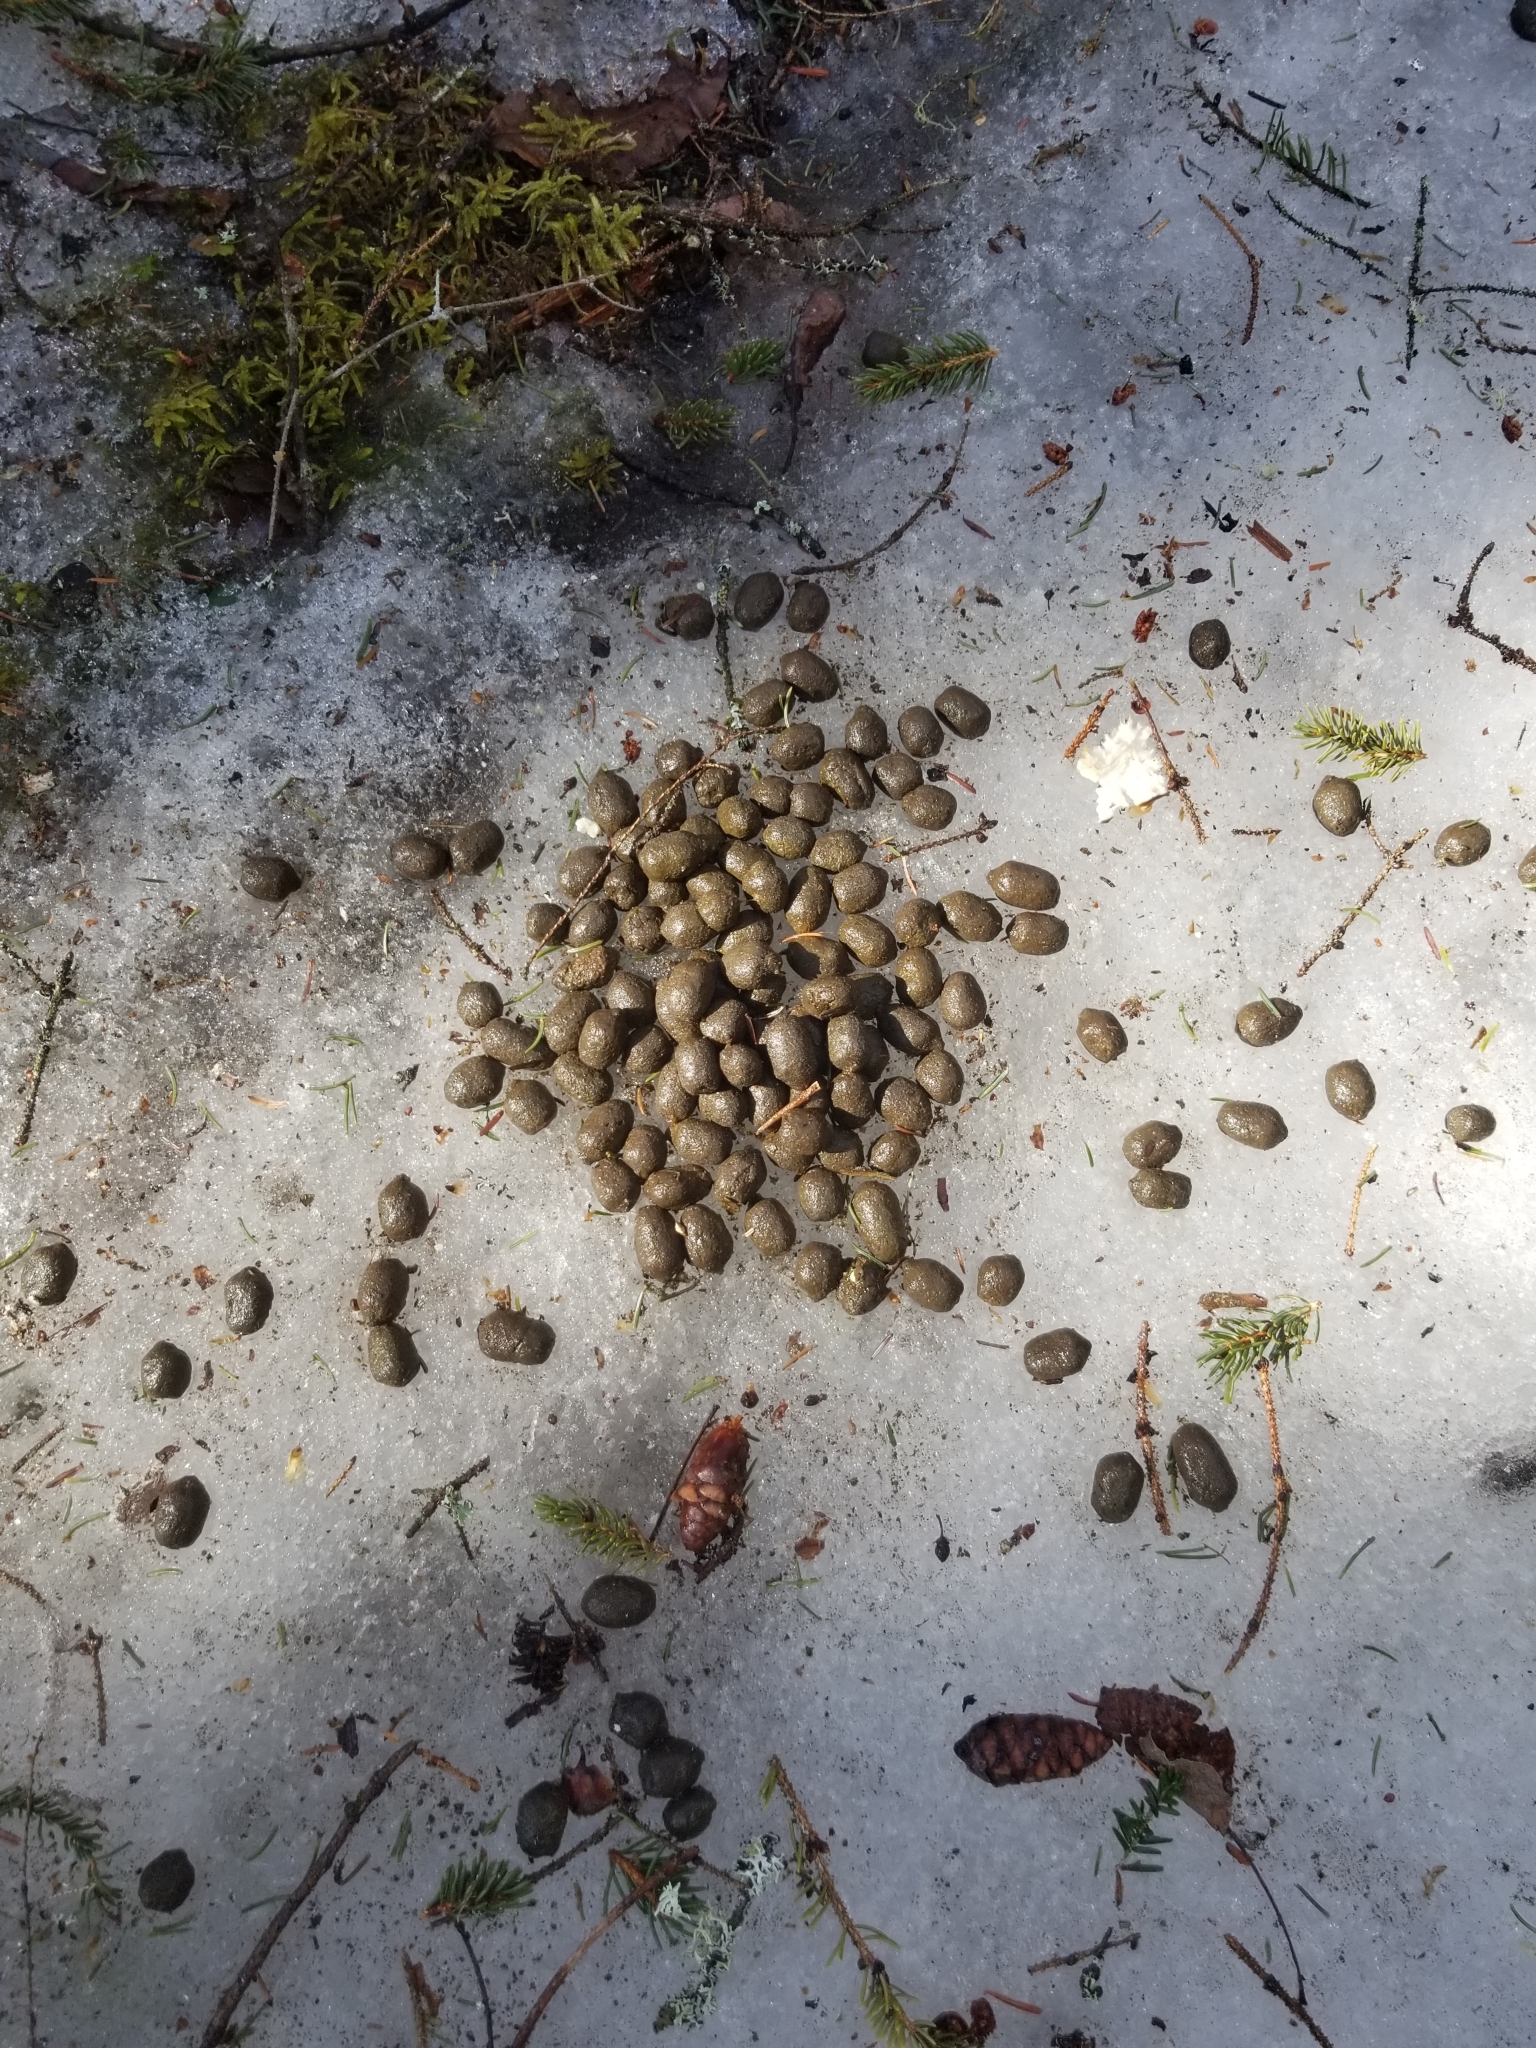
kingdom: Animalia
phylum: Chordata
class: Mammalia
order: Artiodactyla
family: Cervidae
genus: Odocoileus
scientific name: Odocoileus virginianus
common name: White-tailed deer
